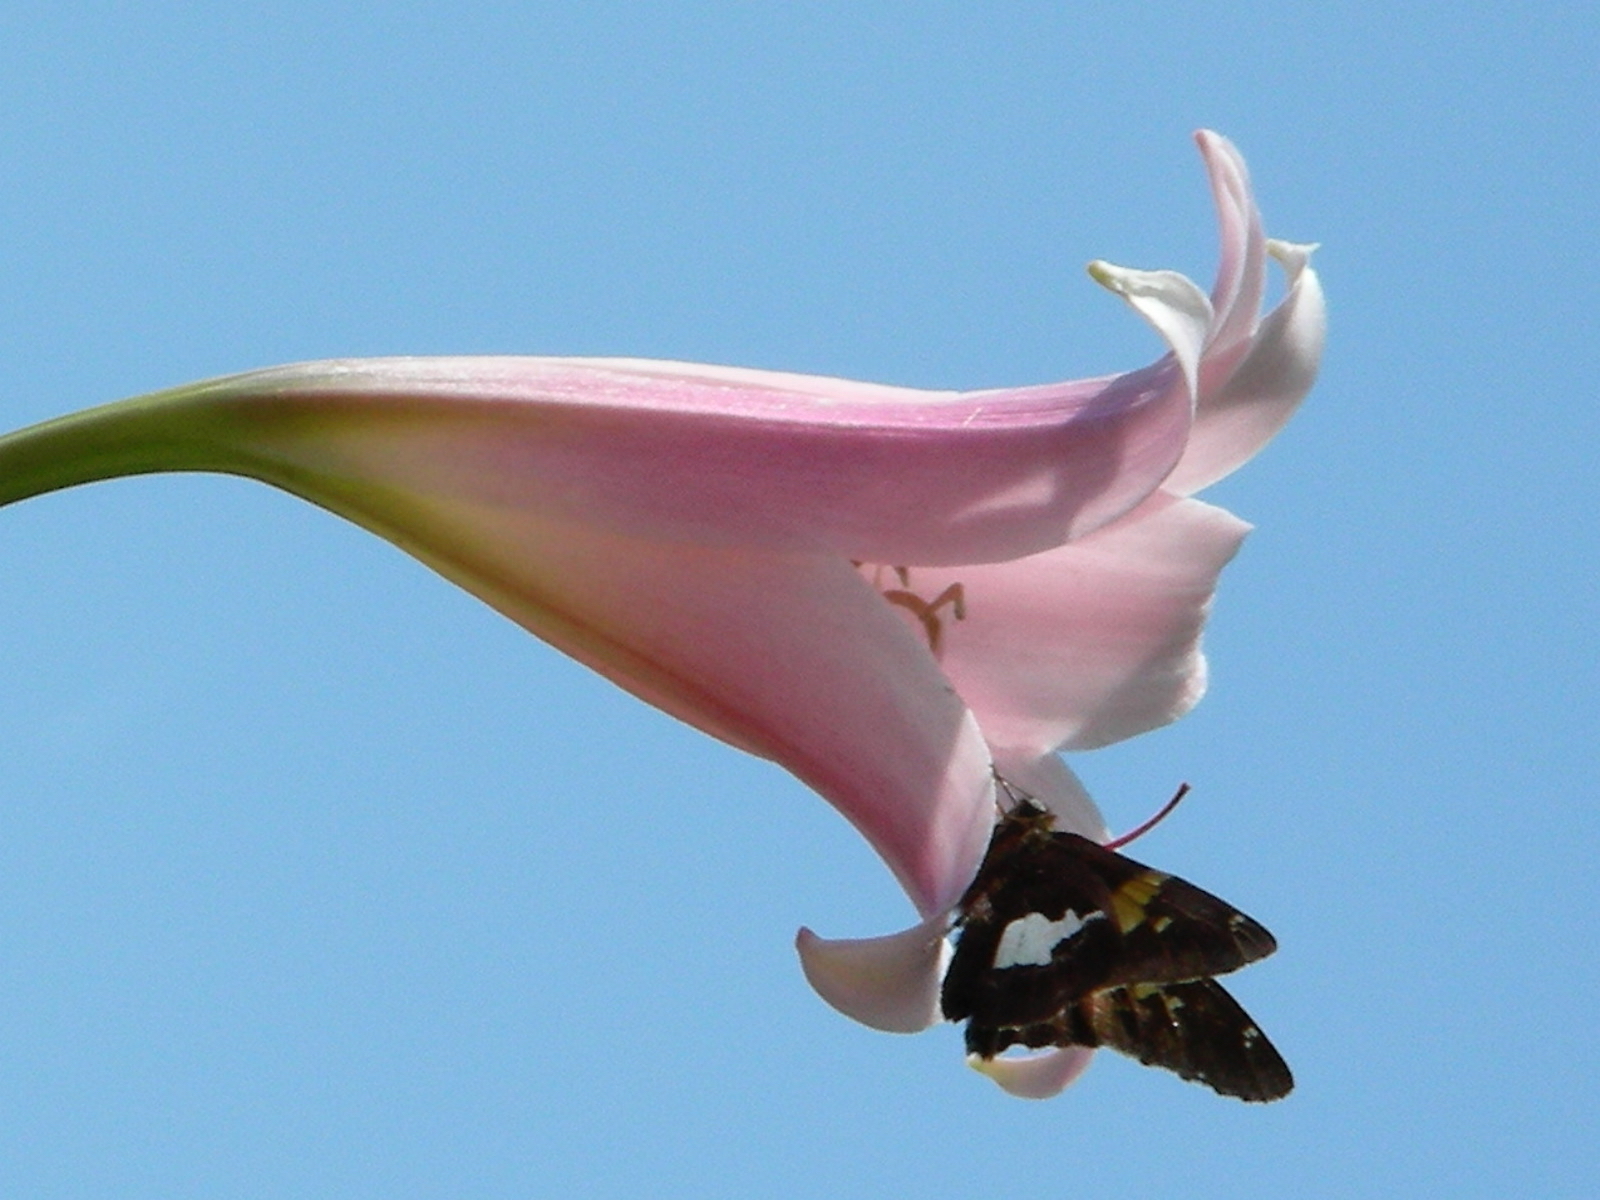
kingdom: Animalia
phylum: Arthropoda
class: Insecta
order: Lepidoptera
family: Hesperiidae
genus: Epargyreus
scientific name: Epargyreus clarus
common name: Silver-spotted skipper
